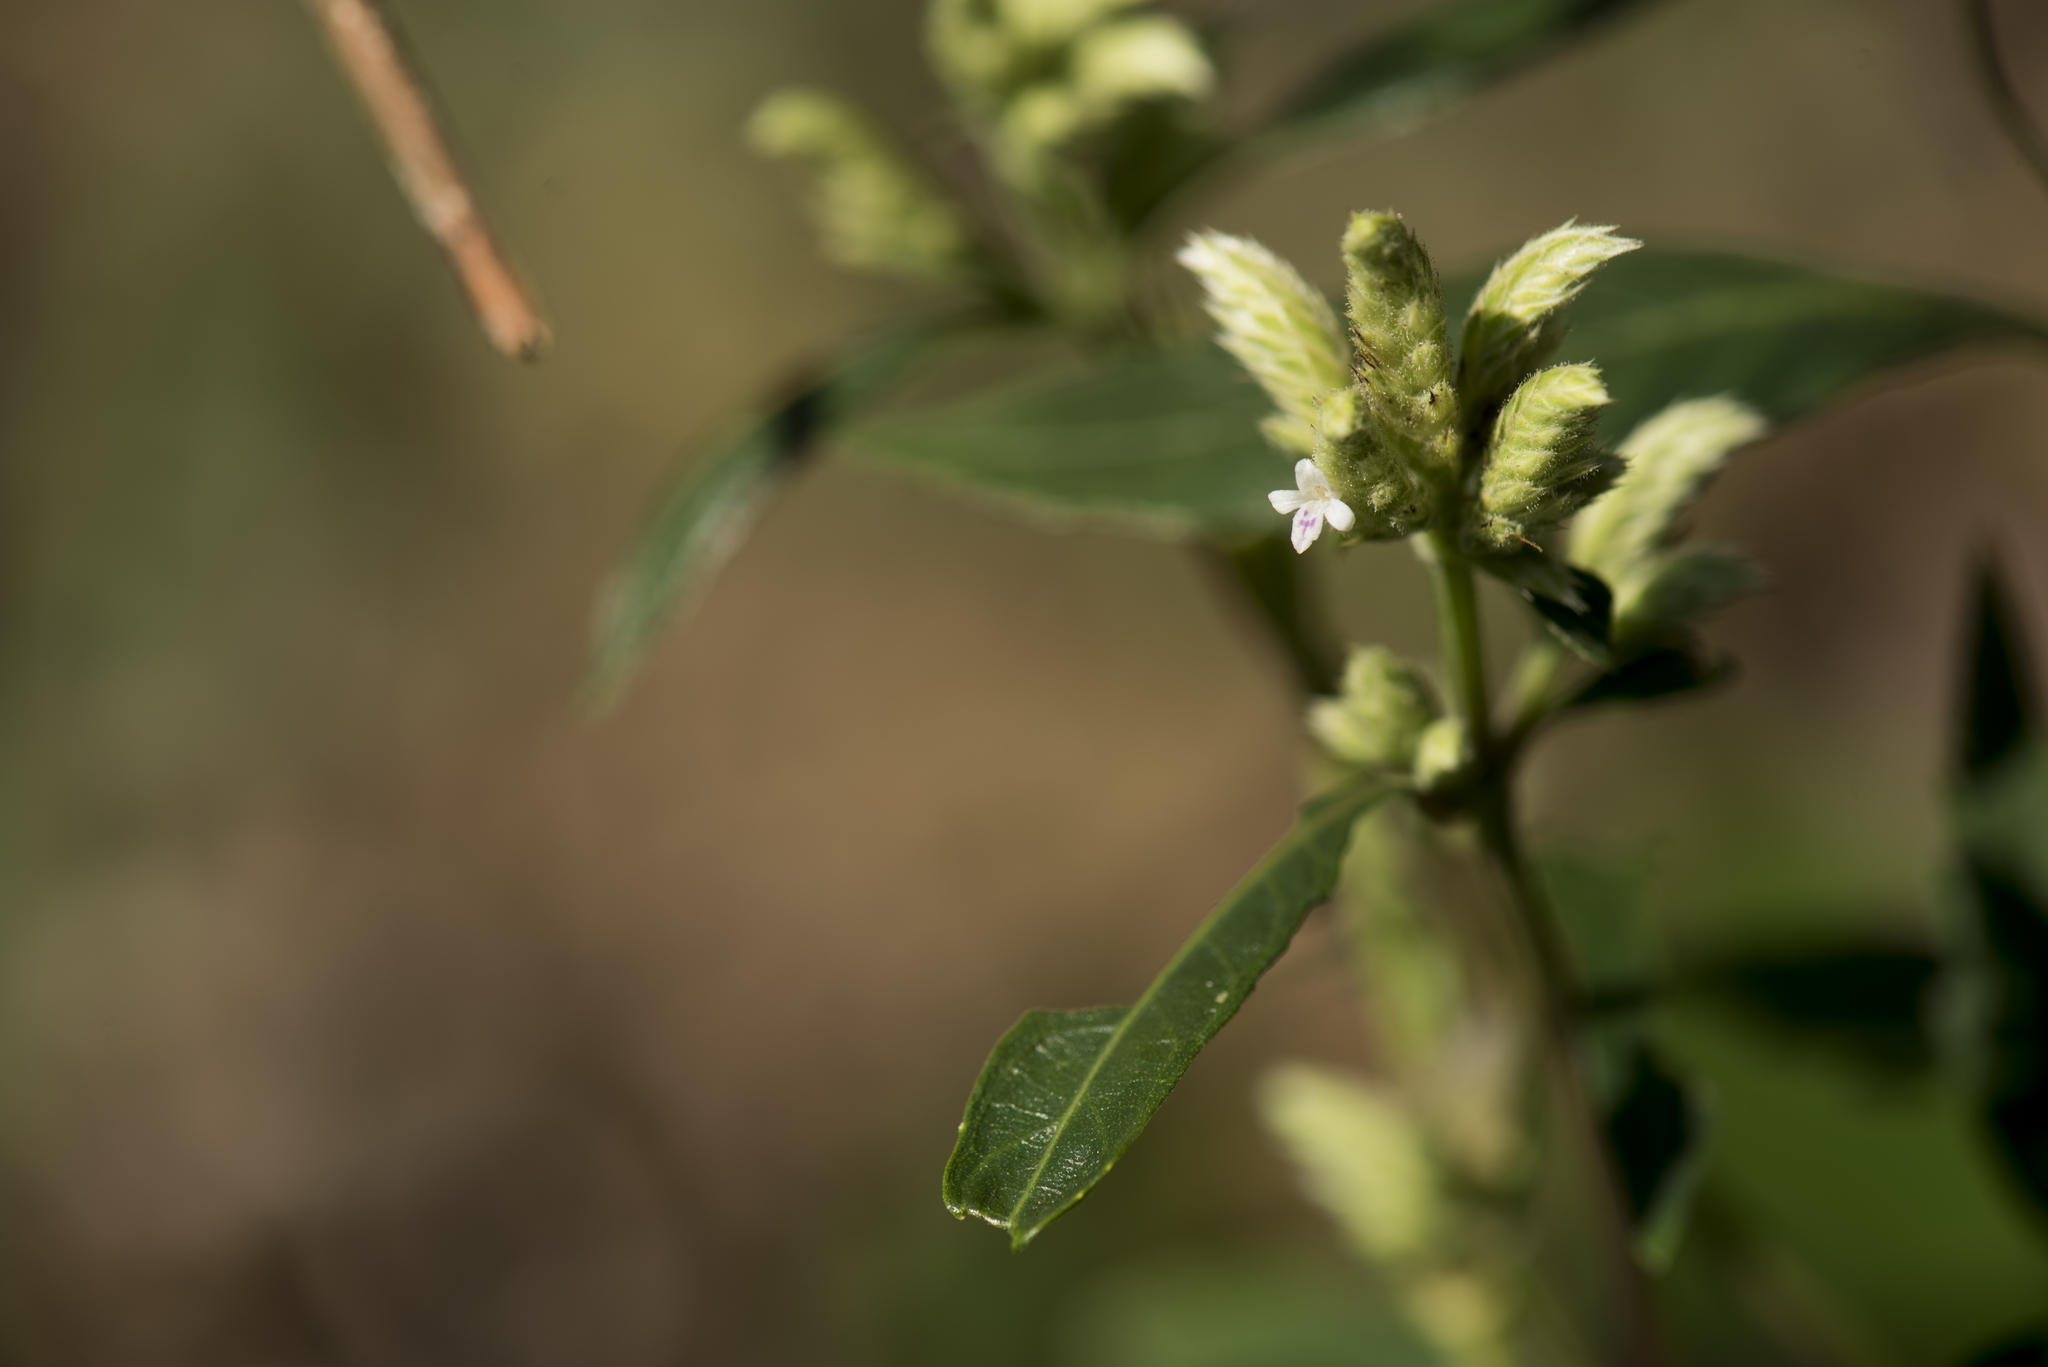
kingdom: Plantae
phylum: Tracheophyta
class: Magnoliopsida
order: Lamiales
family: Acanthaceae
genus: Lepidagathis
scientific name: Lepidagathis formosensis
